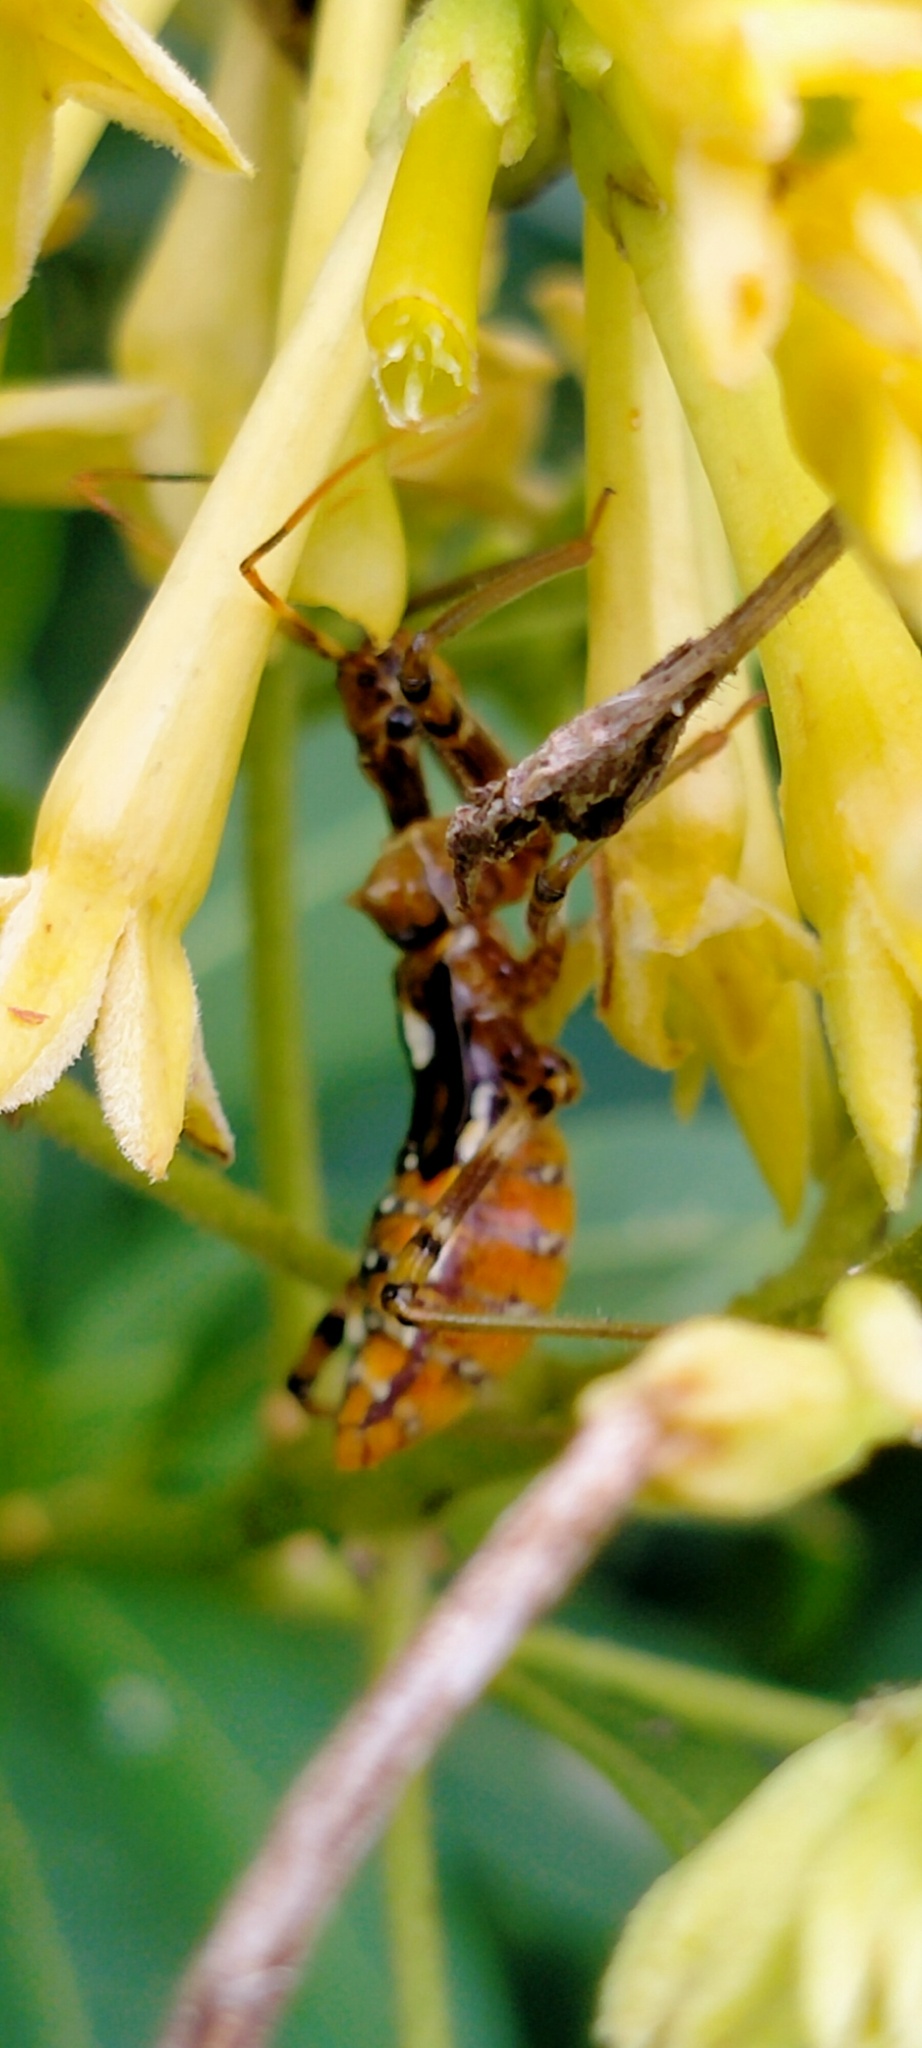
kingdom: Animalia
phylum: Arthropoda
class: Insecta
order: Hemiptera
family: Reduviidae
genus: Pristhesancus
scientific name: Pristhesancus plagipennis
